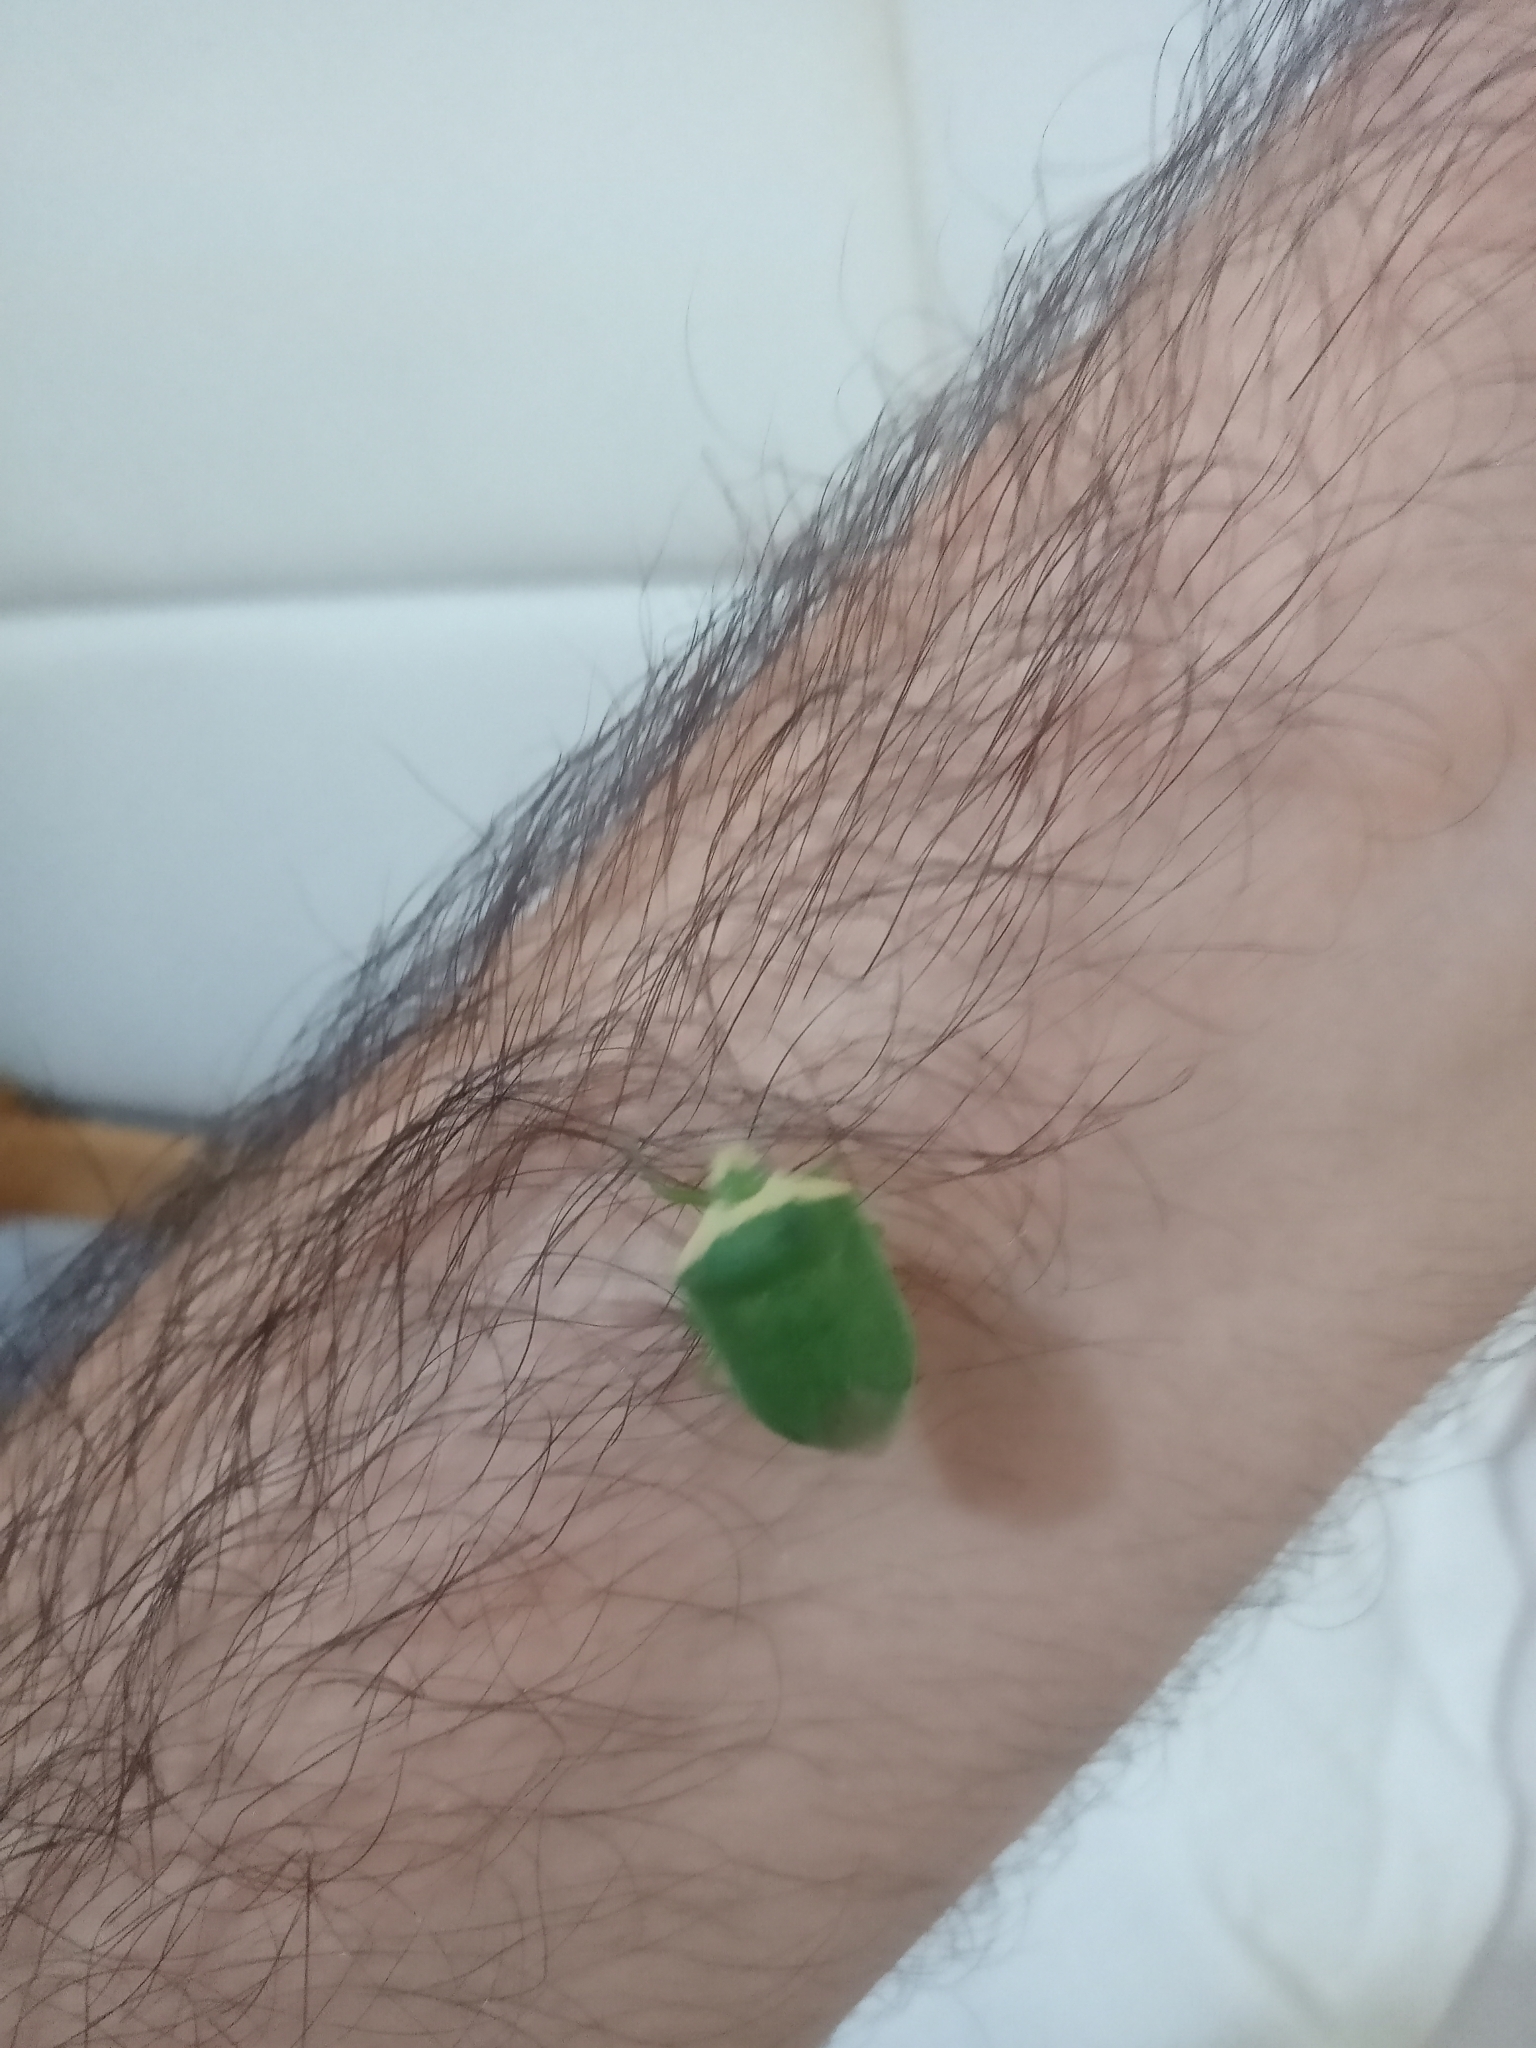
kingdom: Animalia
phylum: Arthropoda
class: Insecta
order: Hemiptera
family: Pentatomidae
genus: Nezara
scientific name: Nezara viridula
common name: Southern green stink bug
